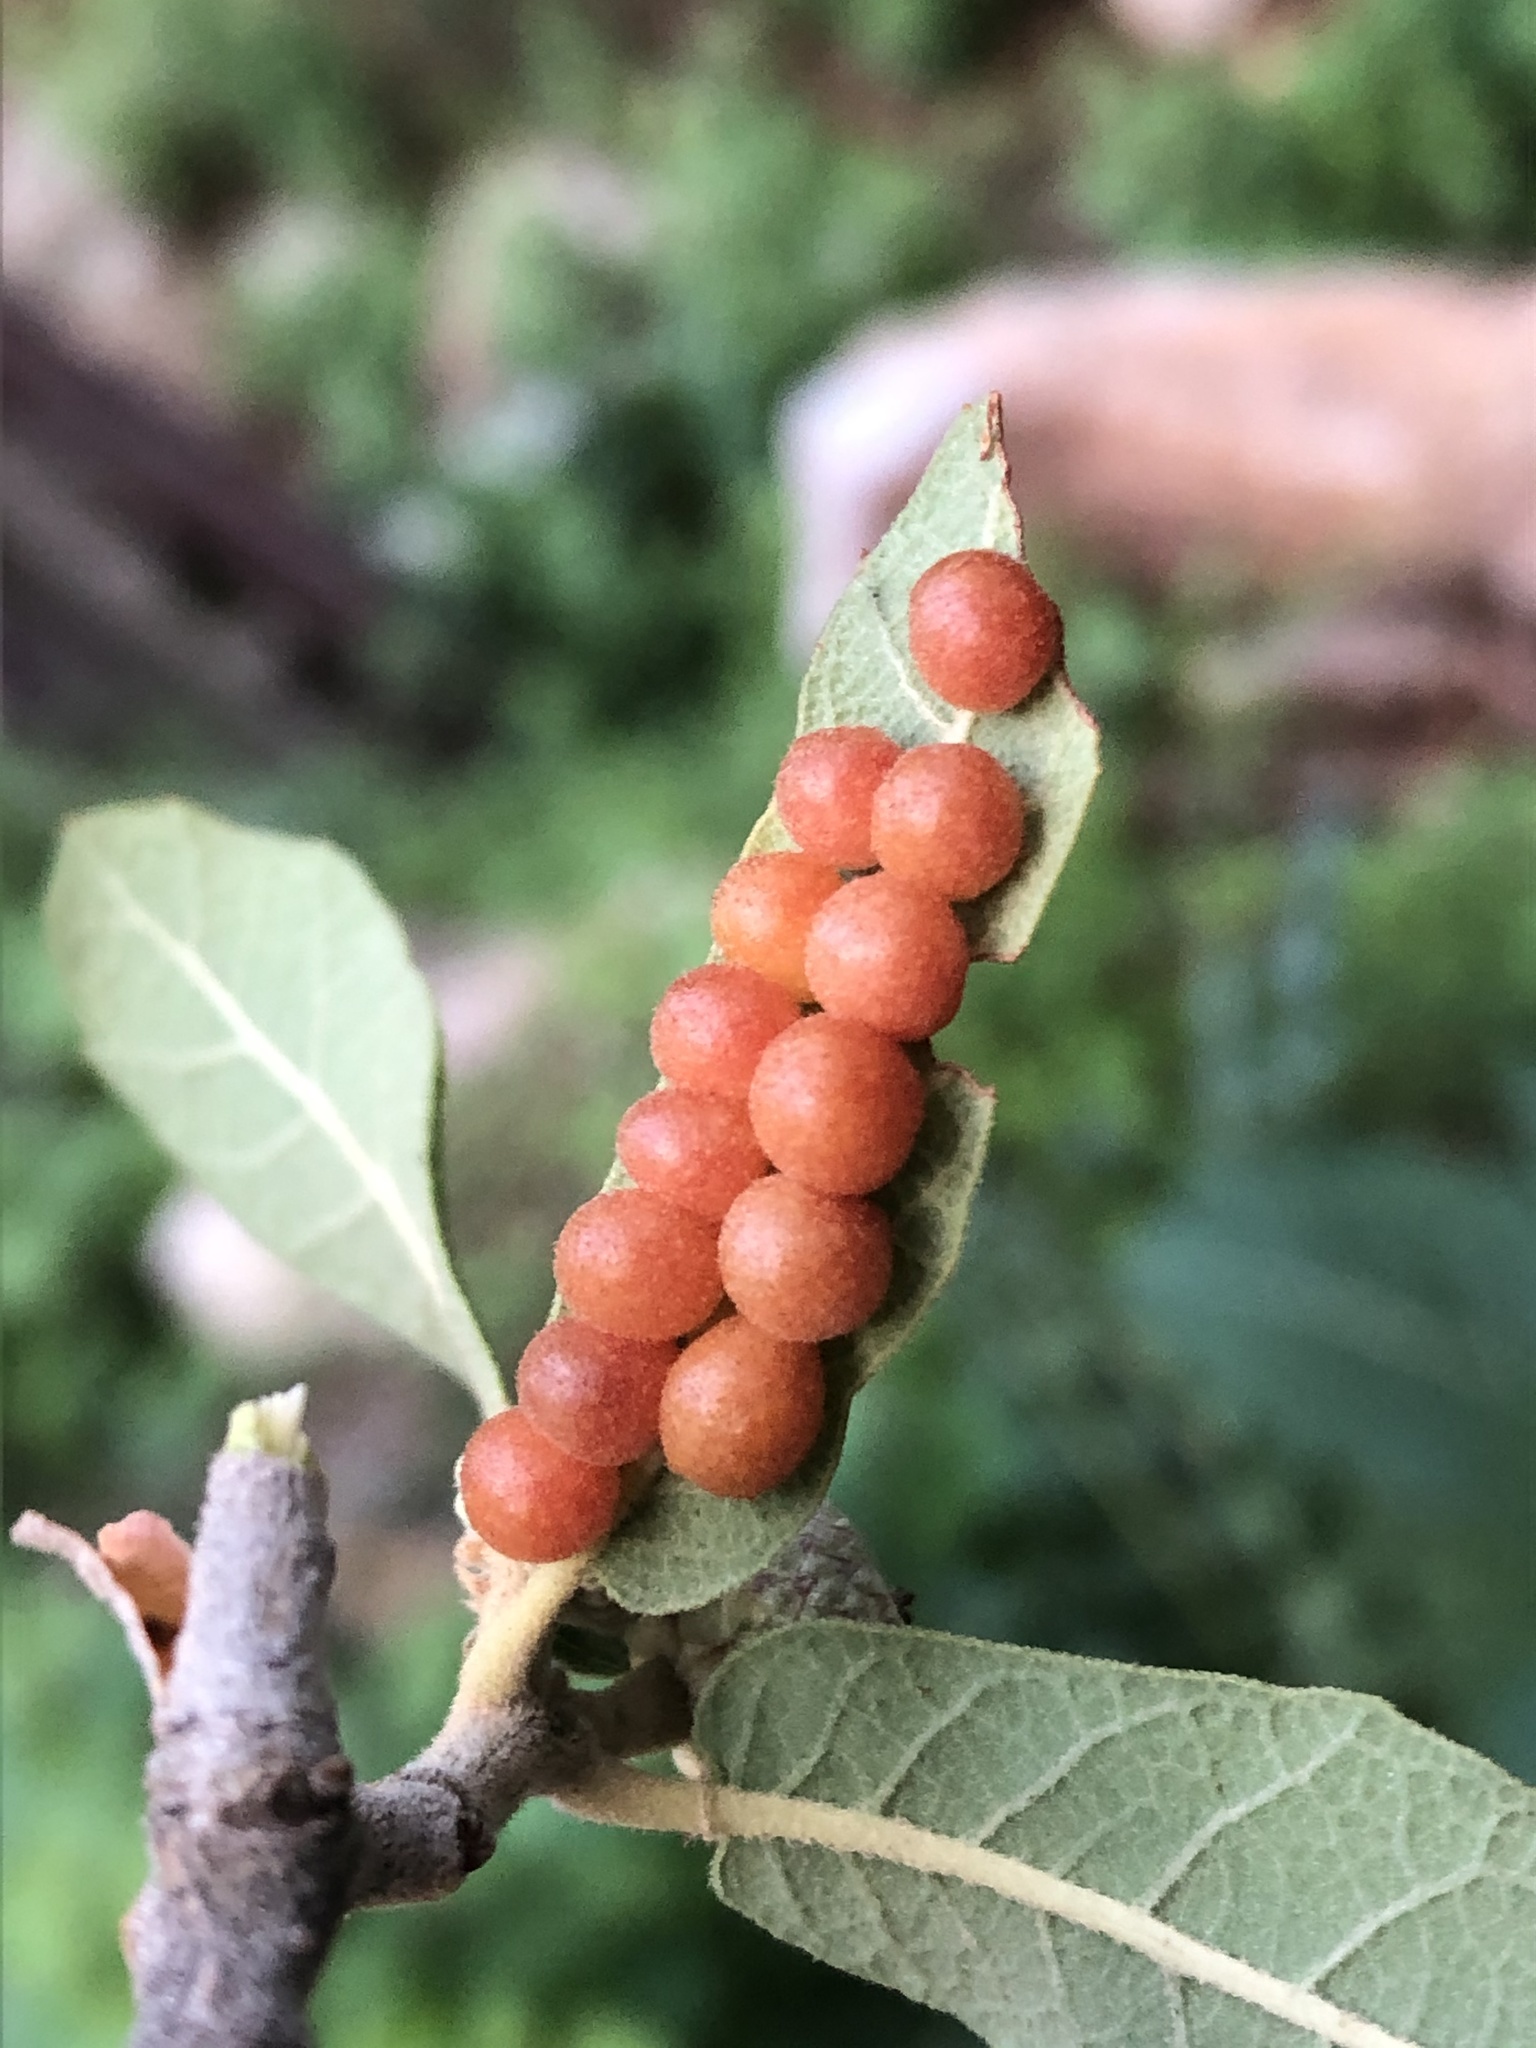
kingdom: Animalia
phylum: Arthropoda
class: Insecta
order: Hymenoptera
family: Cynipidae
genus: Biorhiza
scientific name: Biorhiza
